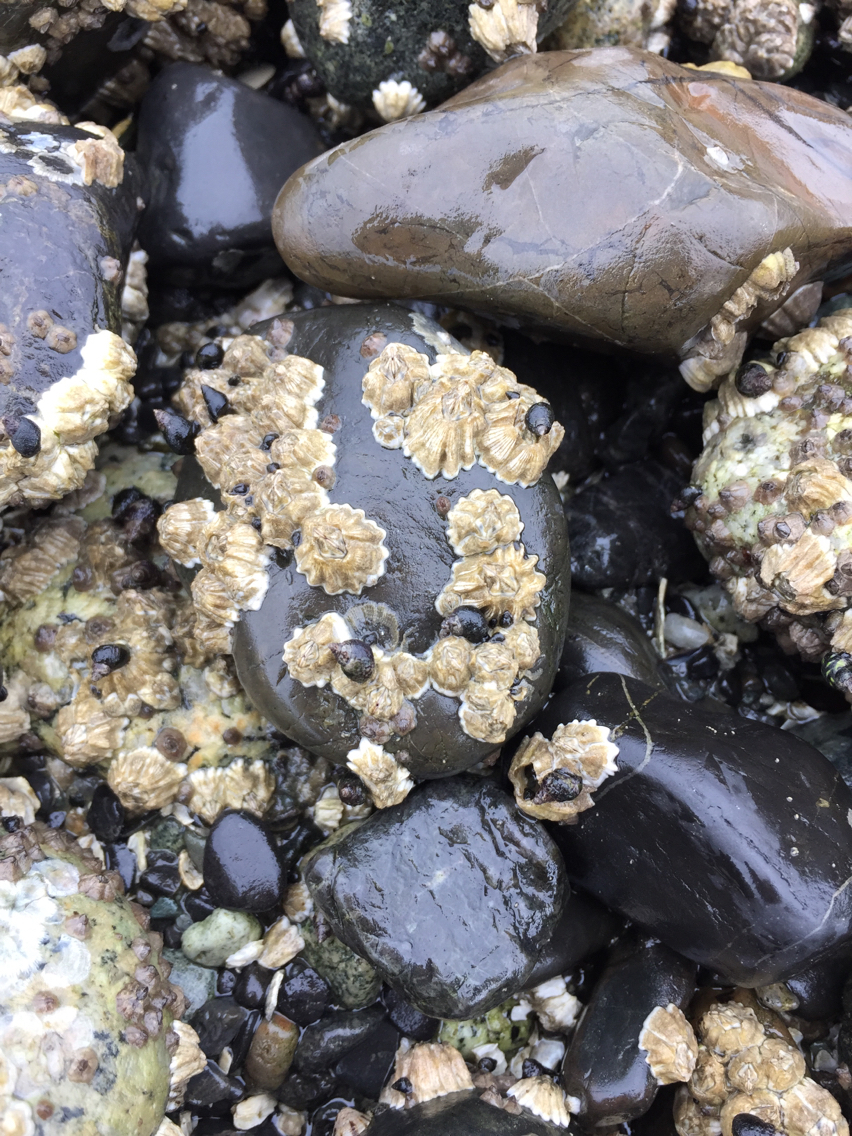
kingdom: Animalia
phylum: Arthropoda
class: Maxillopoda
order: Sessilia
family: Balanidae
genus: Balanus
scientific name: Balanus glandula
